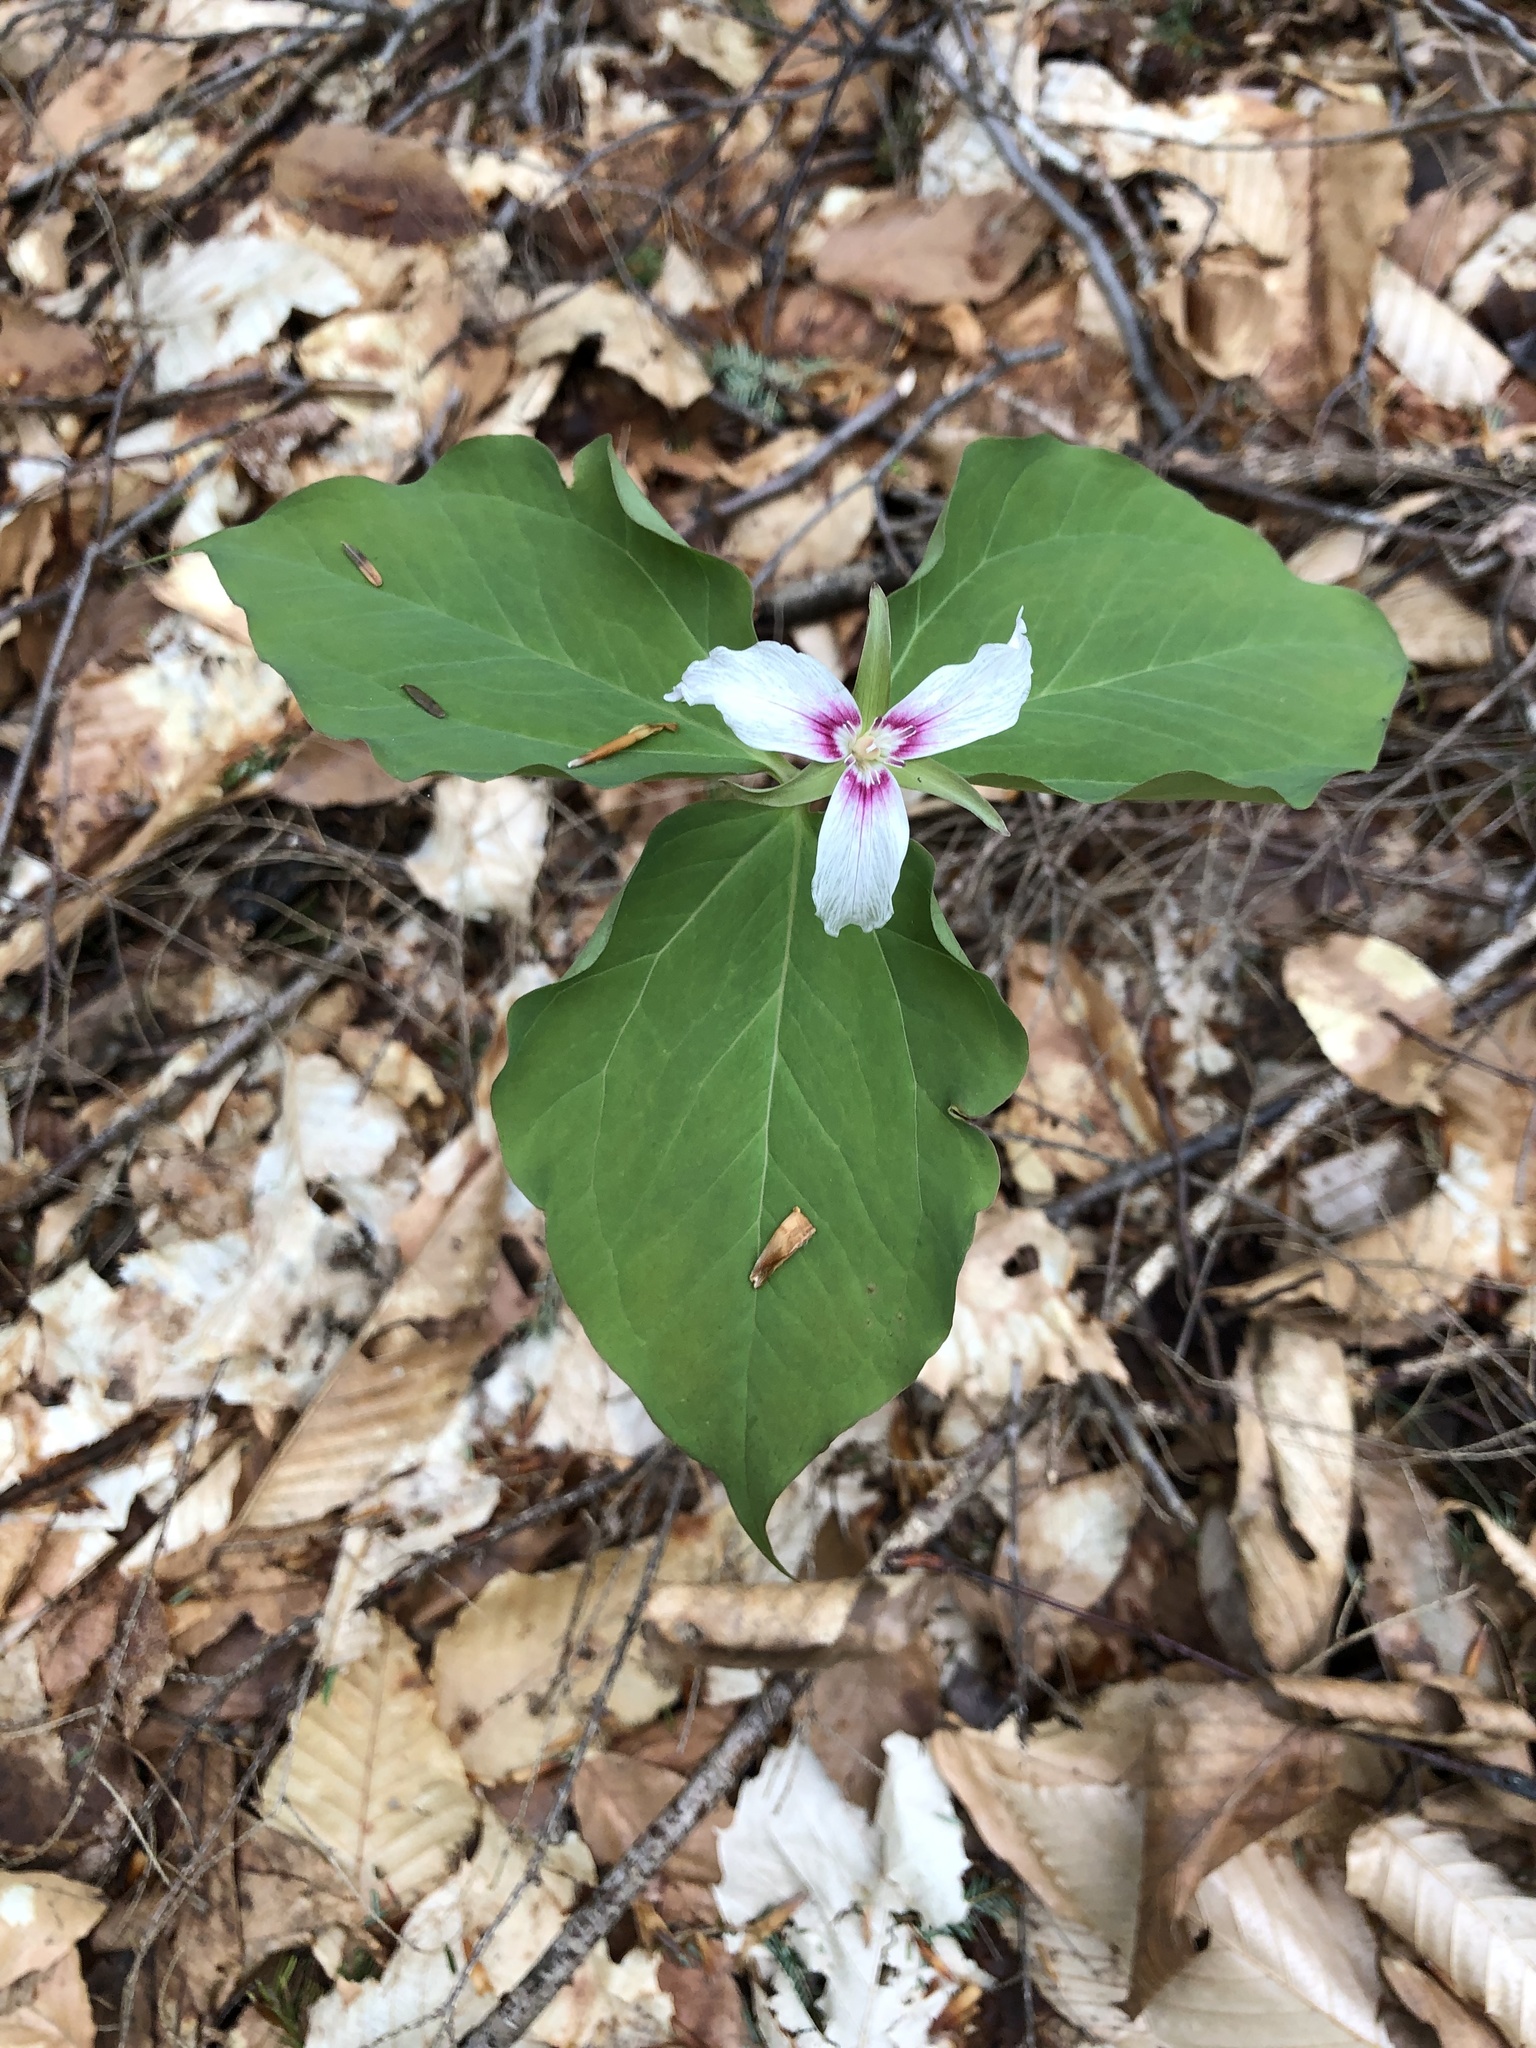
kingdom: Plantae
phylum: Tracheophyta
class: Liliopsida
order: Liliales
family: Melanthiaceae
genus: Trillium
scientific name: Trillium undulatum
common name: Paint trillium
